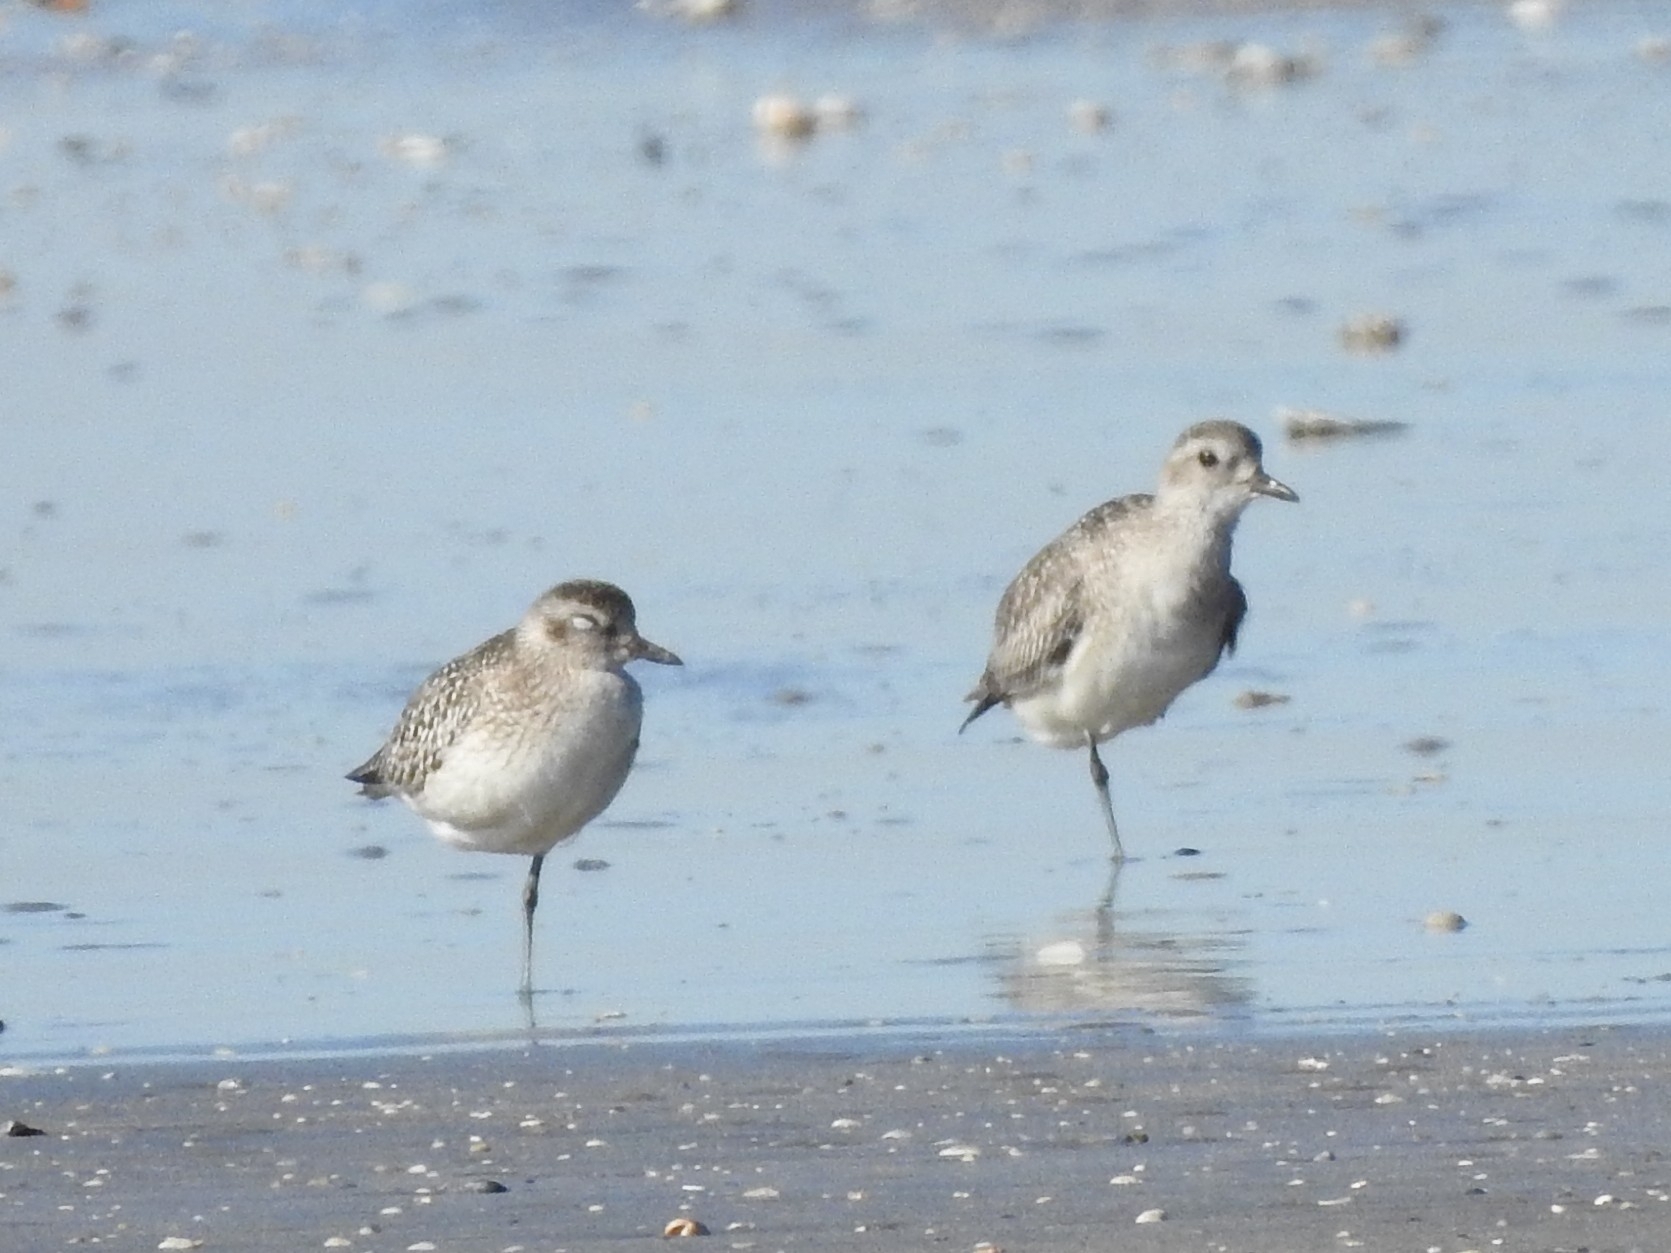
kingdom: Animalia
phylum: Chordata
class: Aves
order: Charadriiformes
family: Charadriidae
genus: Pluvialis
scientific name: Pluvialis squatarola
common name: Grey plover
